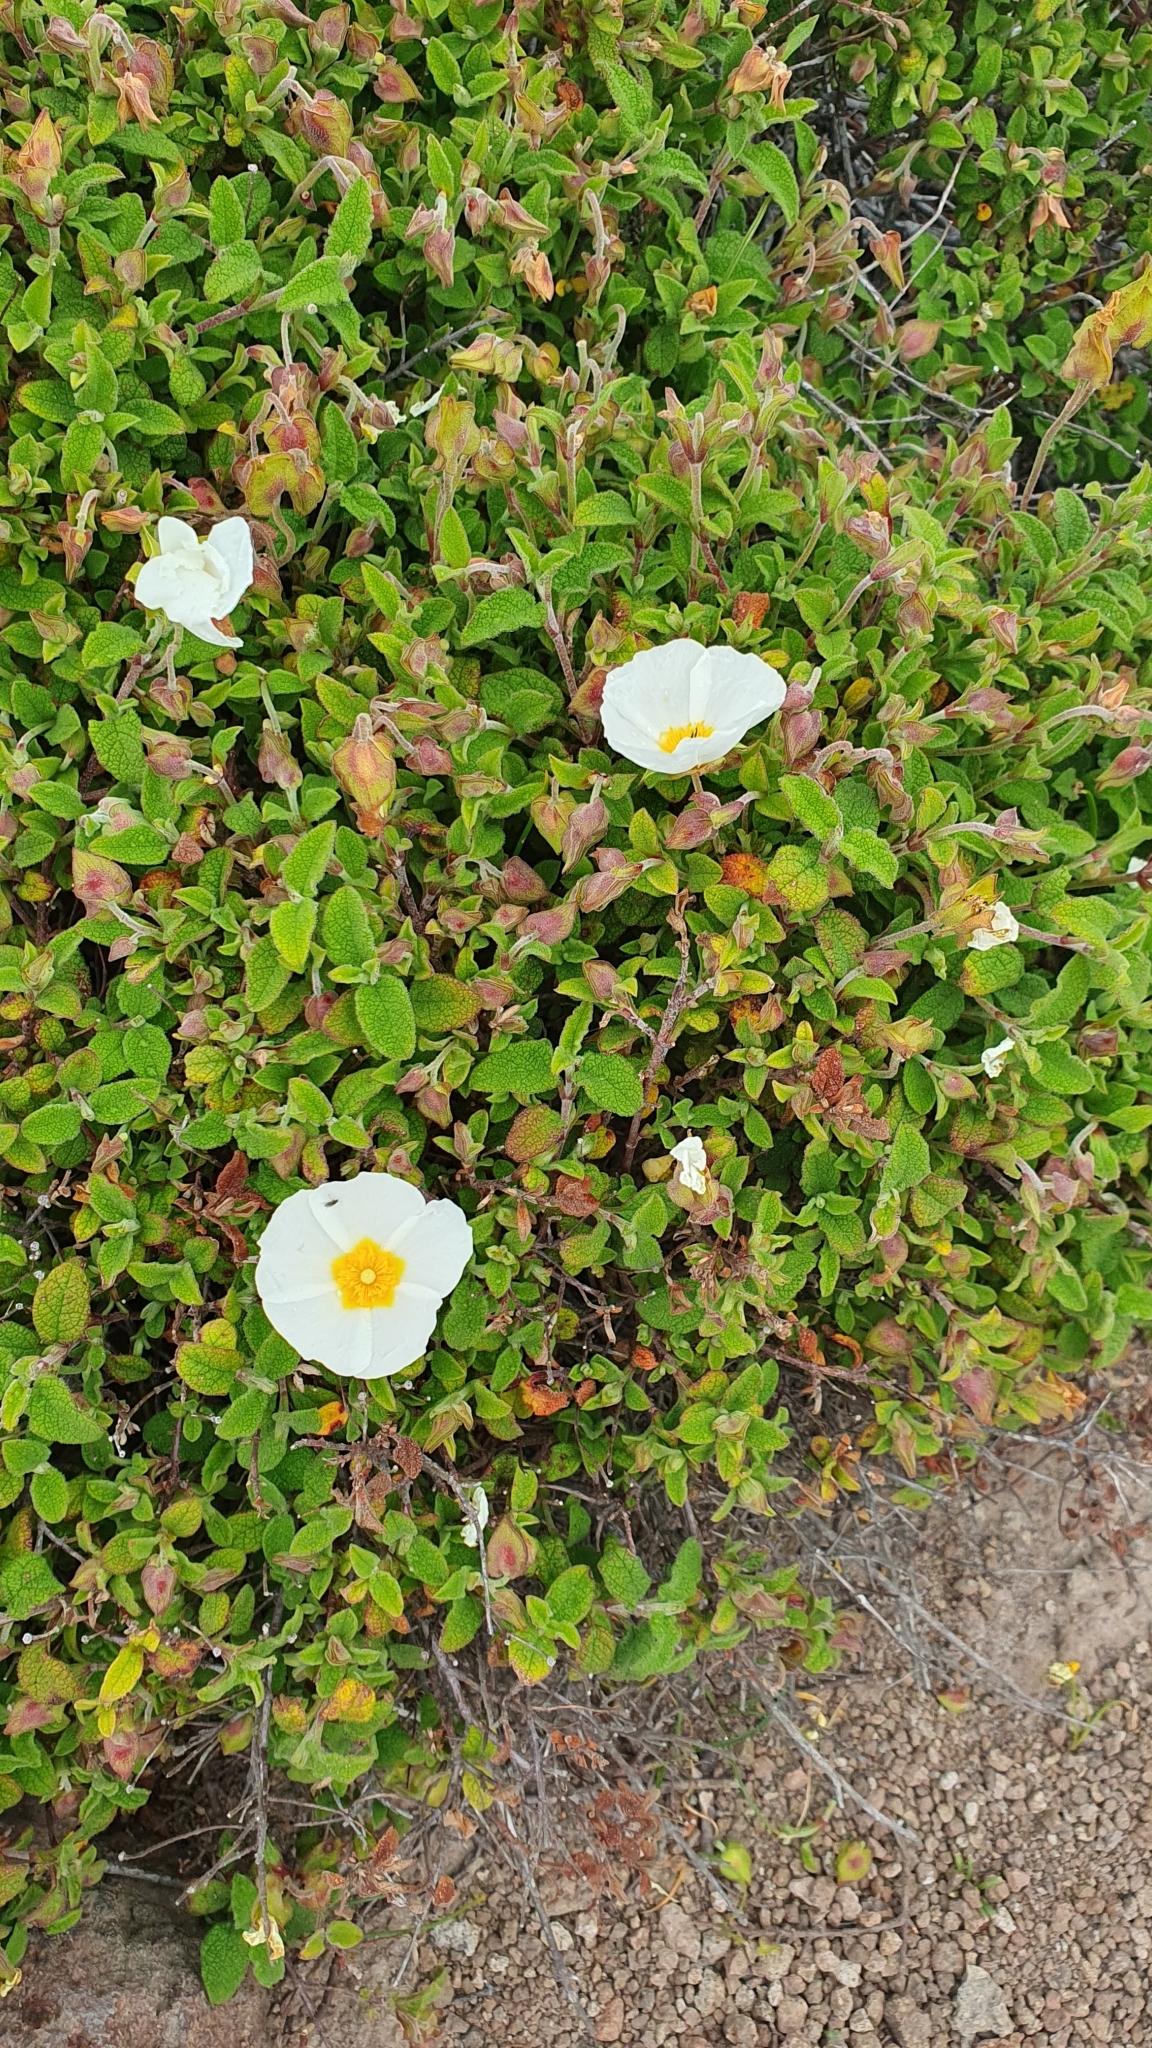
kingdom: Plantae
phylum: Tracheophyta
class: Magnoliopsida
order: Malvales
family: Cistaceae
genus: Cistus
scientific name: Cistus salviifolius
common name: Salvia cistus
